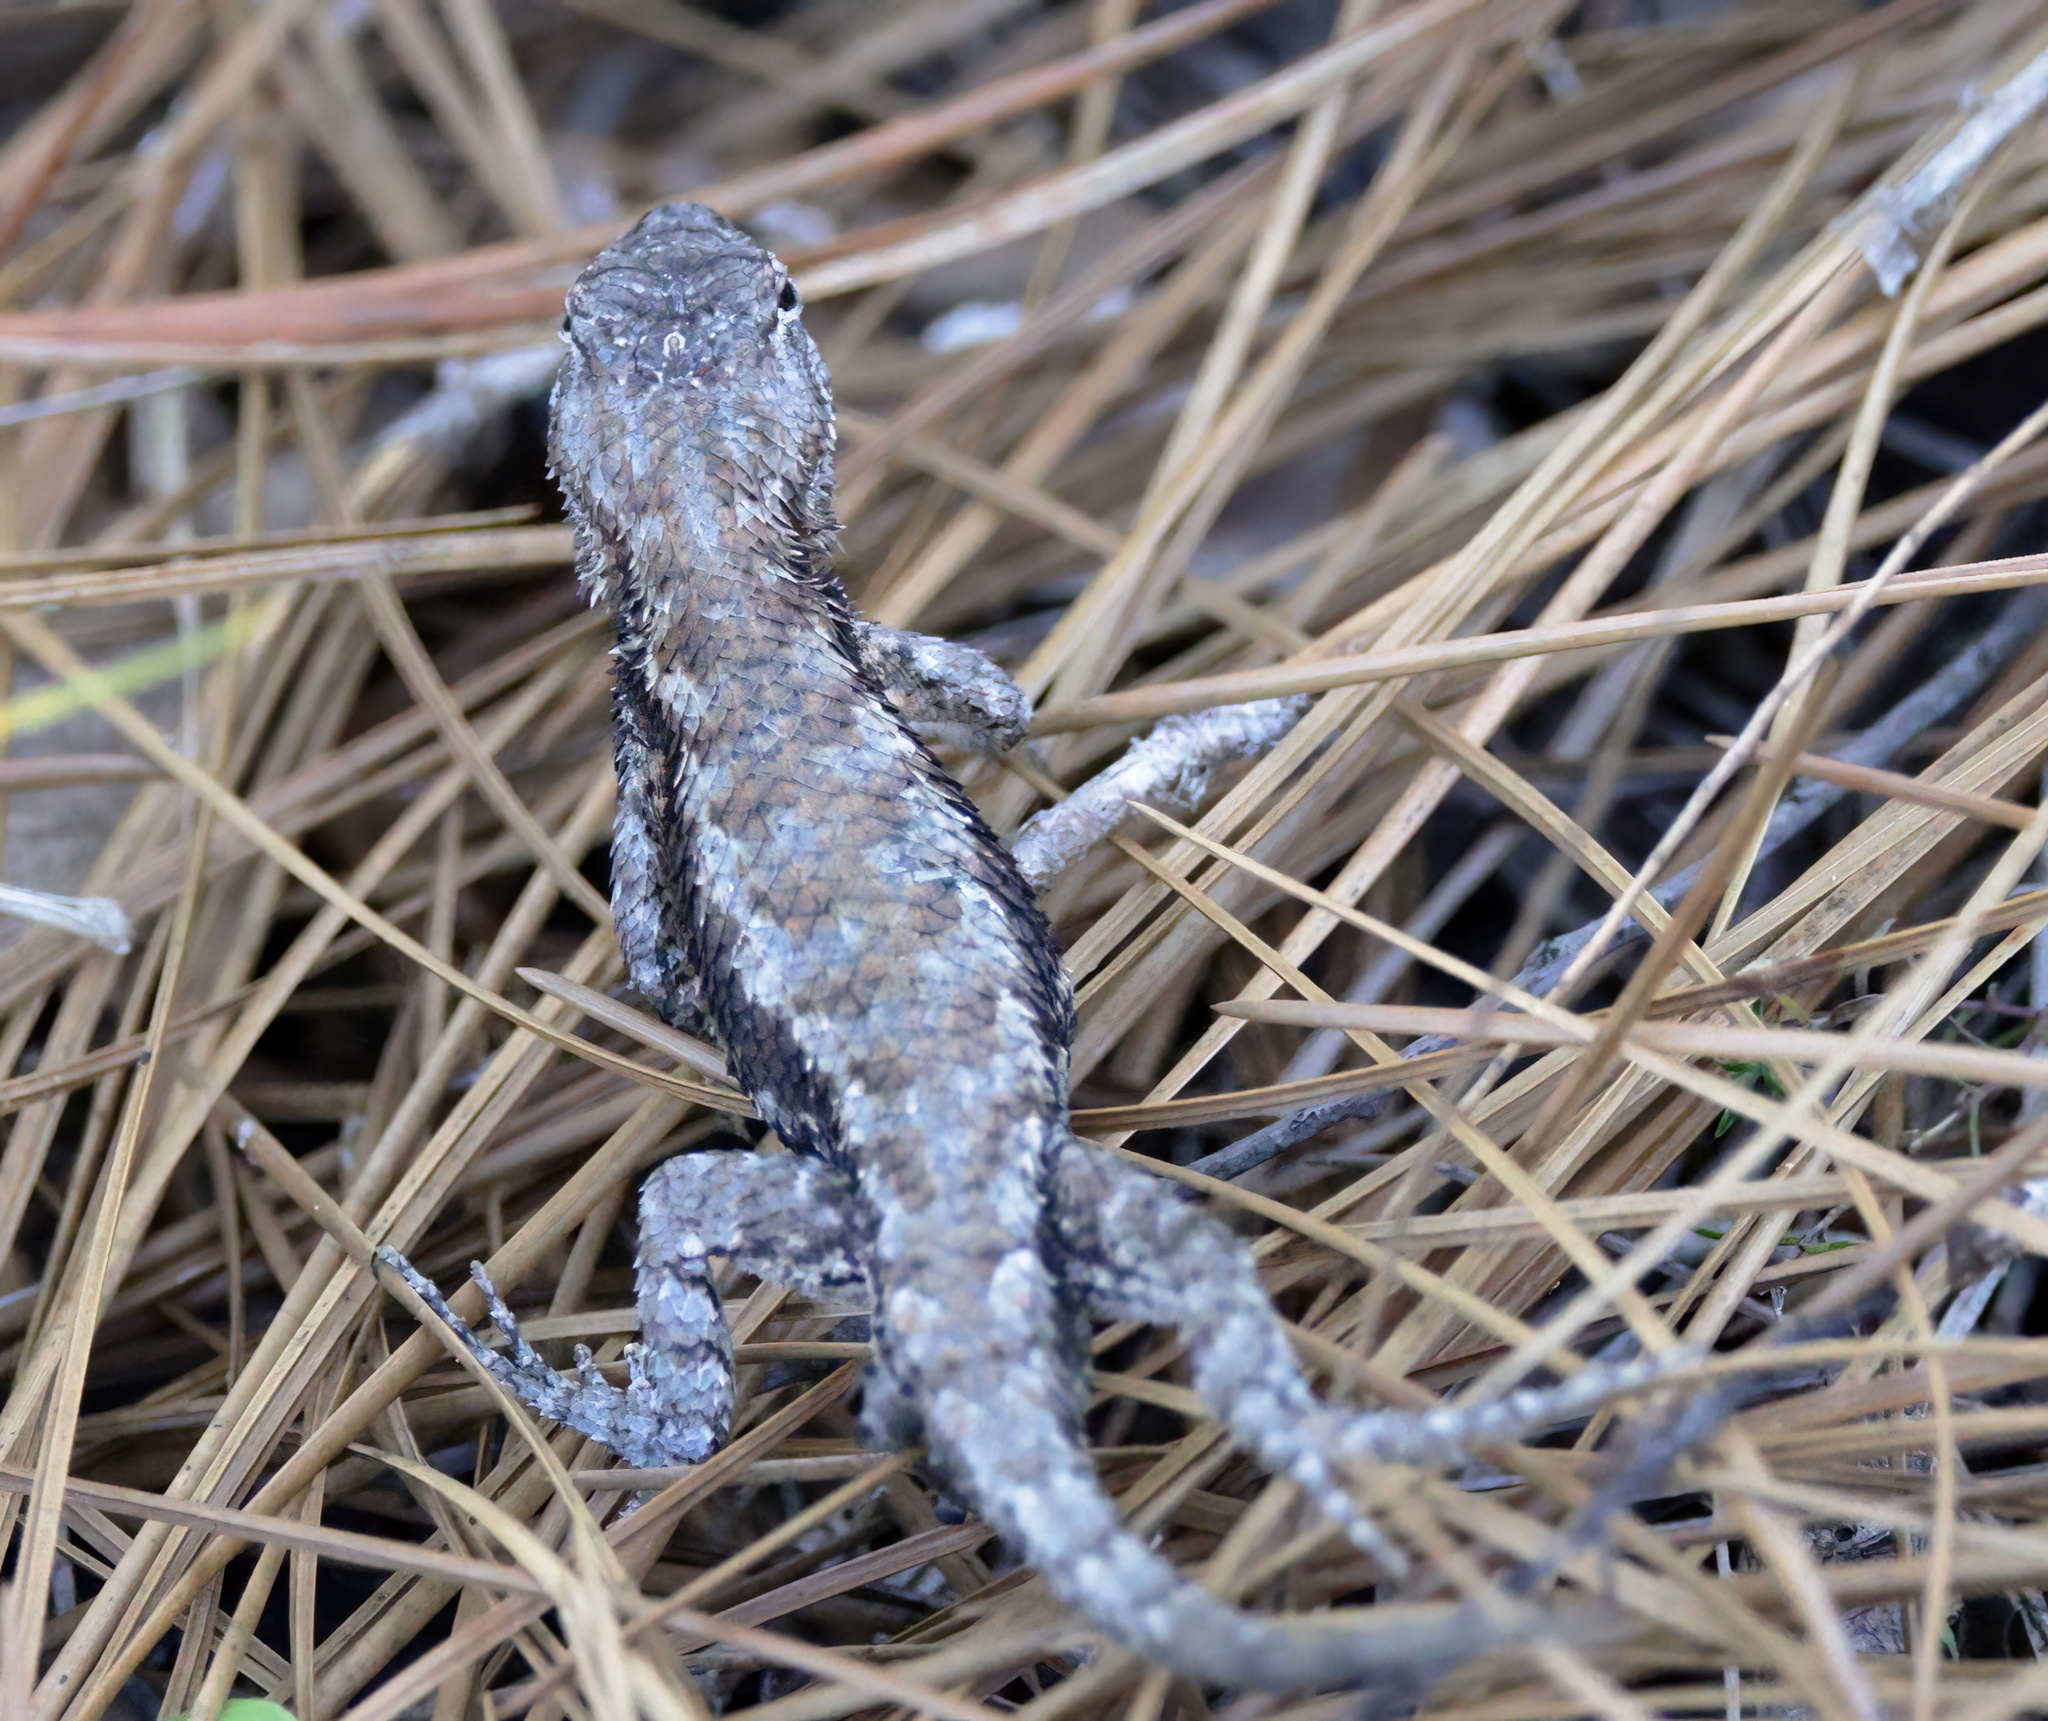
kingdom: Animalia
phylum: Chordata
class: Squamata
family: Phrynosomatidae
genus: Sceloporus
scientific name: Sceloporus undulatus
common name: Eastern fence lizard
